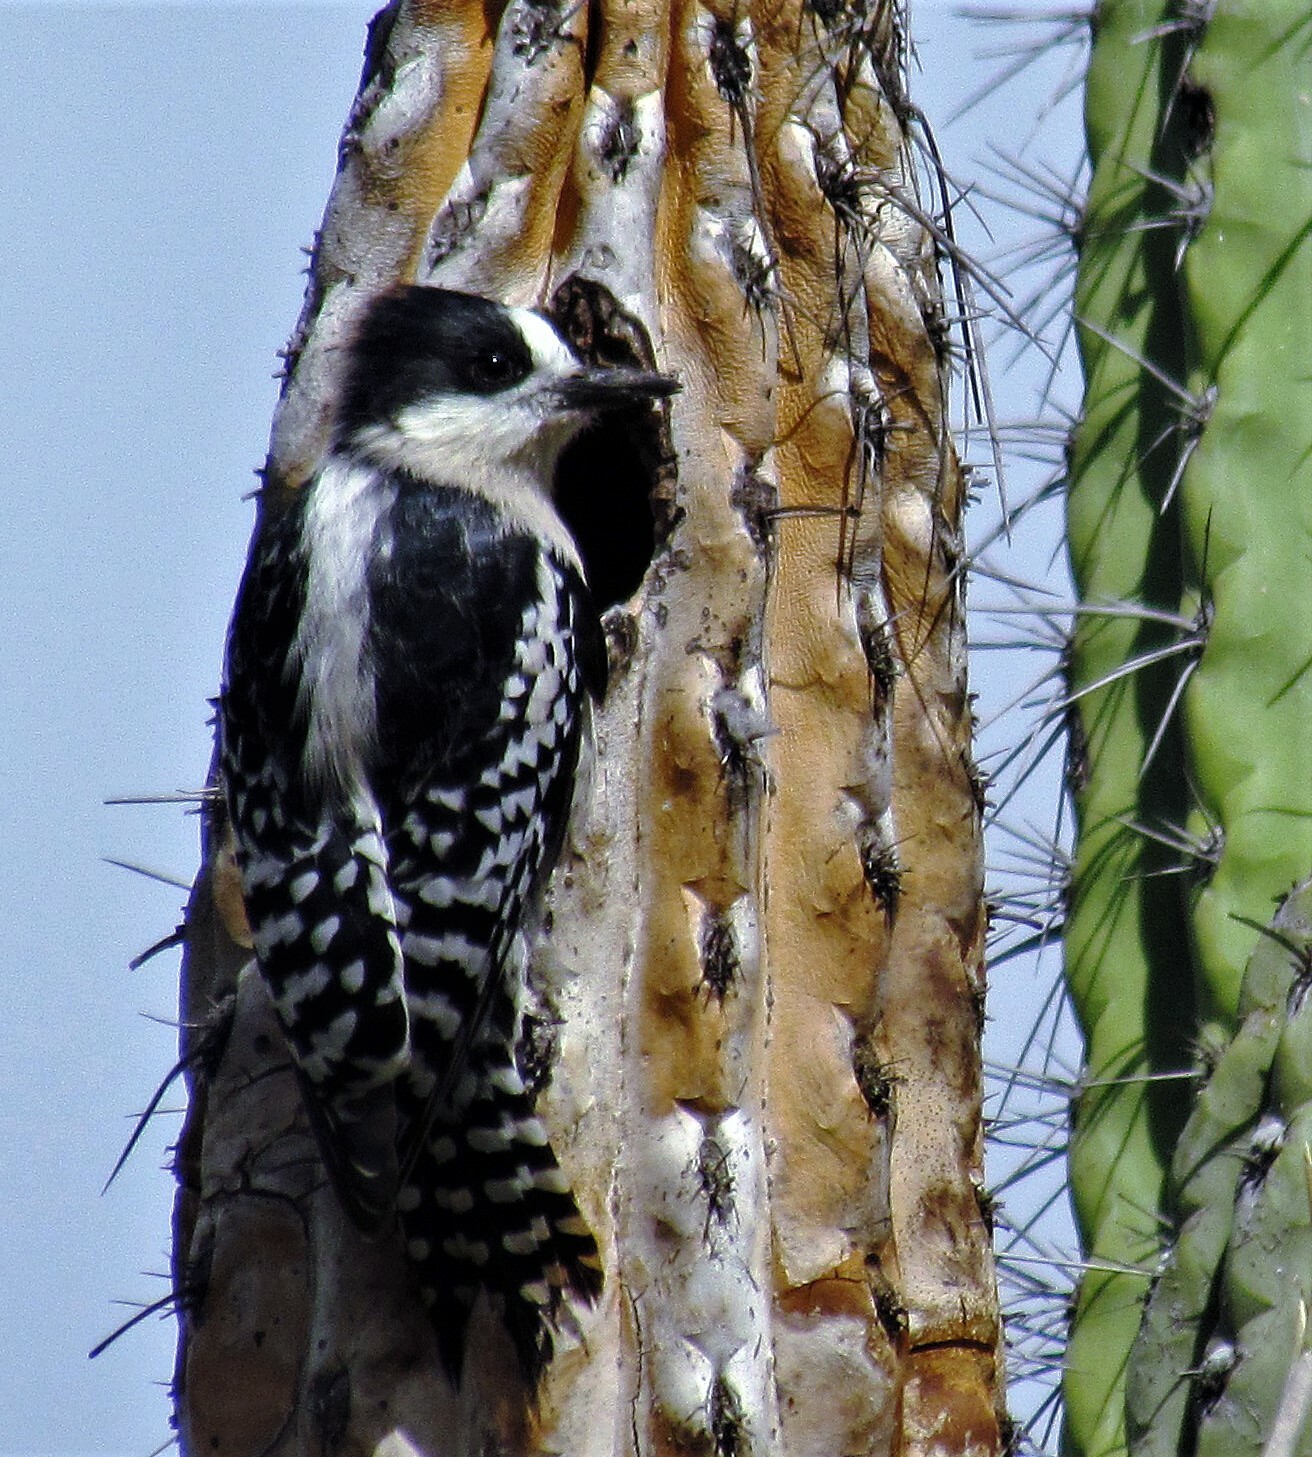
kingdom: Animalia
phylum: Chordata
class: Aves
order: Piciformes
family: Picidae
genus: Melanerpes
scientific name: Melanerpes cactorum
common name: White-fronted woodpecker
